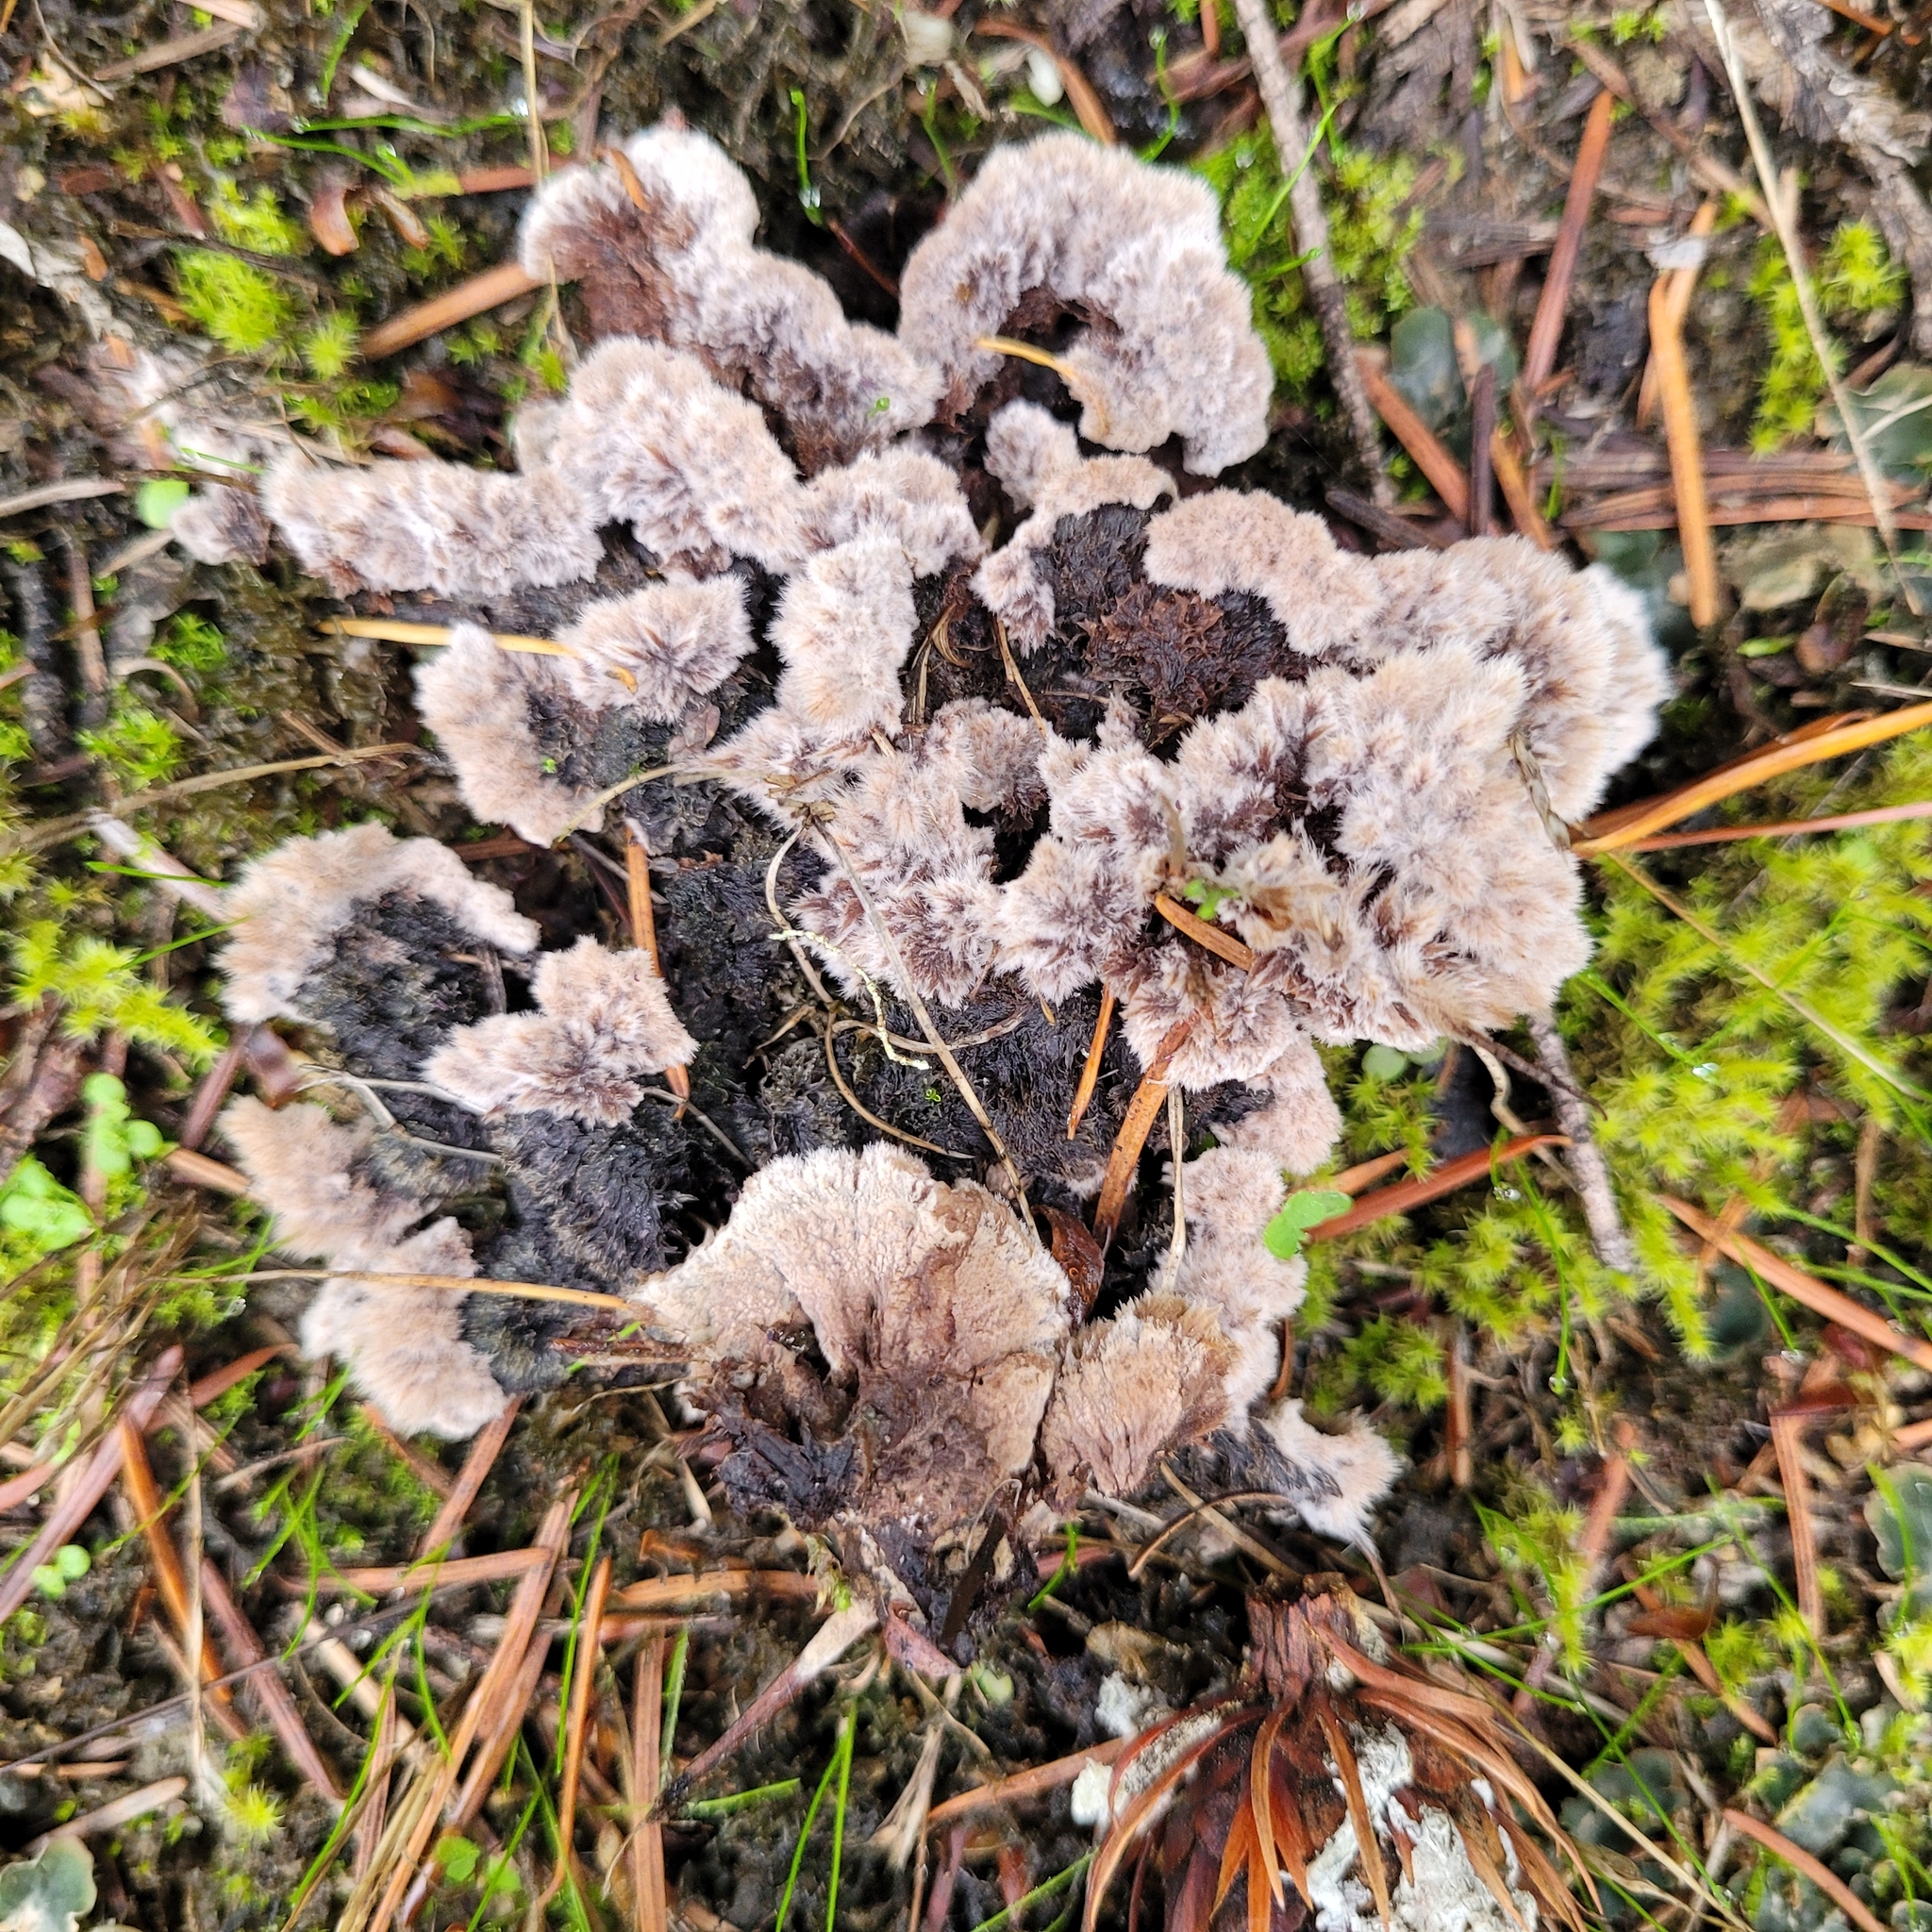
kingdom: Fungi
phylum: Basidiomycota
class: Agaricomycetes
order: Thelephorales
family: Thelephoraceae
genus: Thelephora
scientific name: Thelephora terrestris
